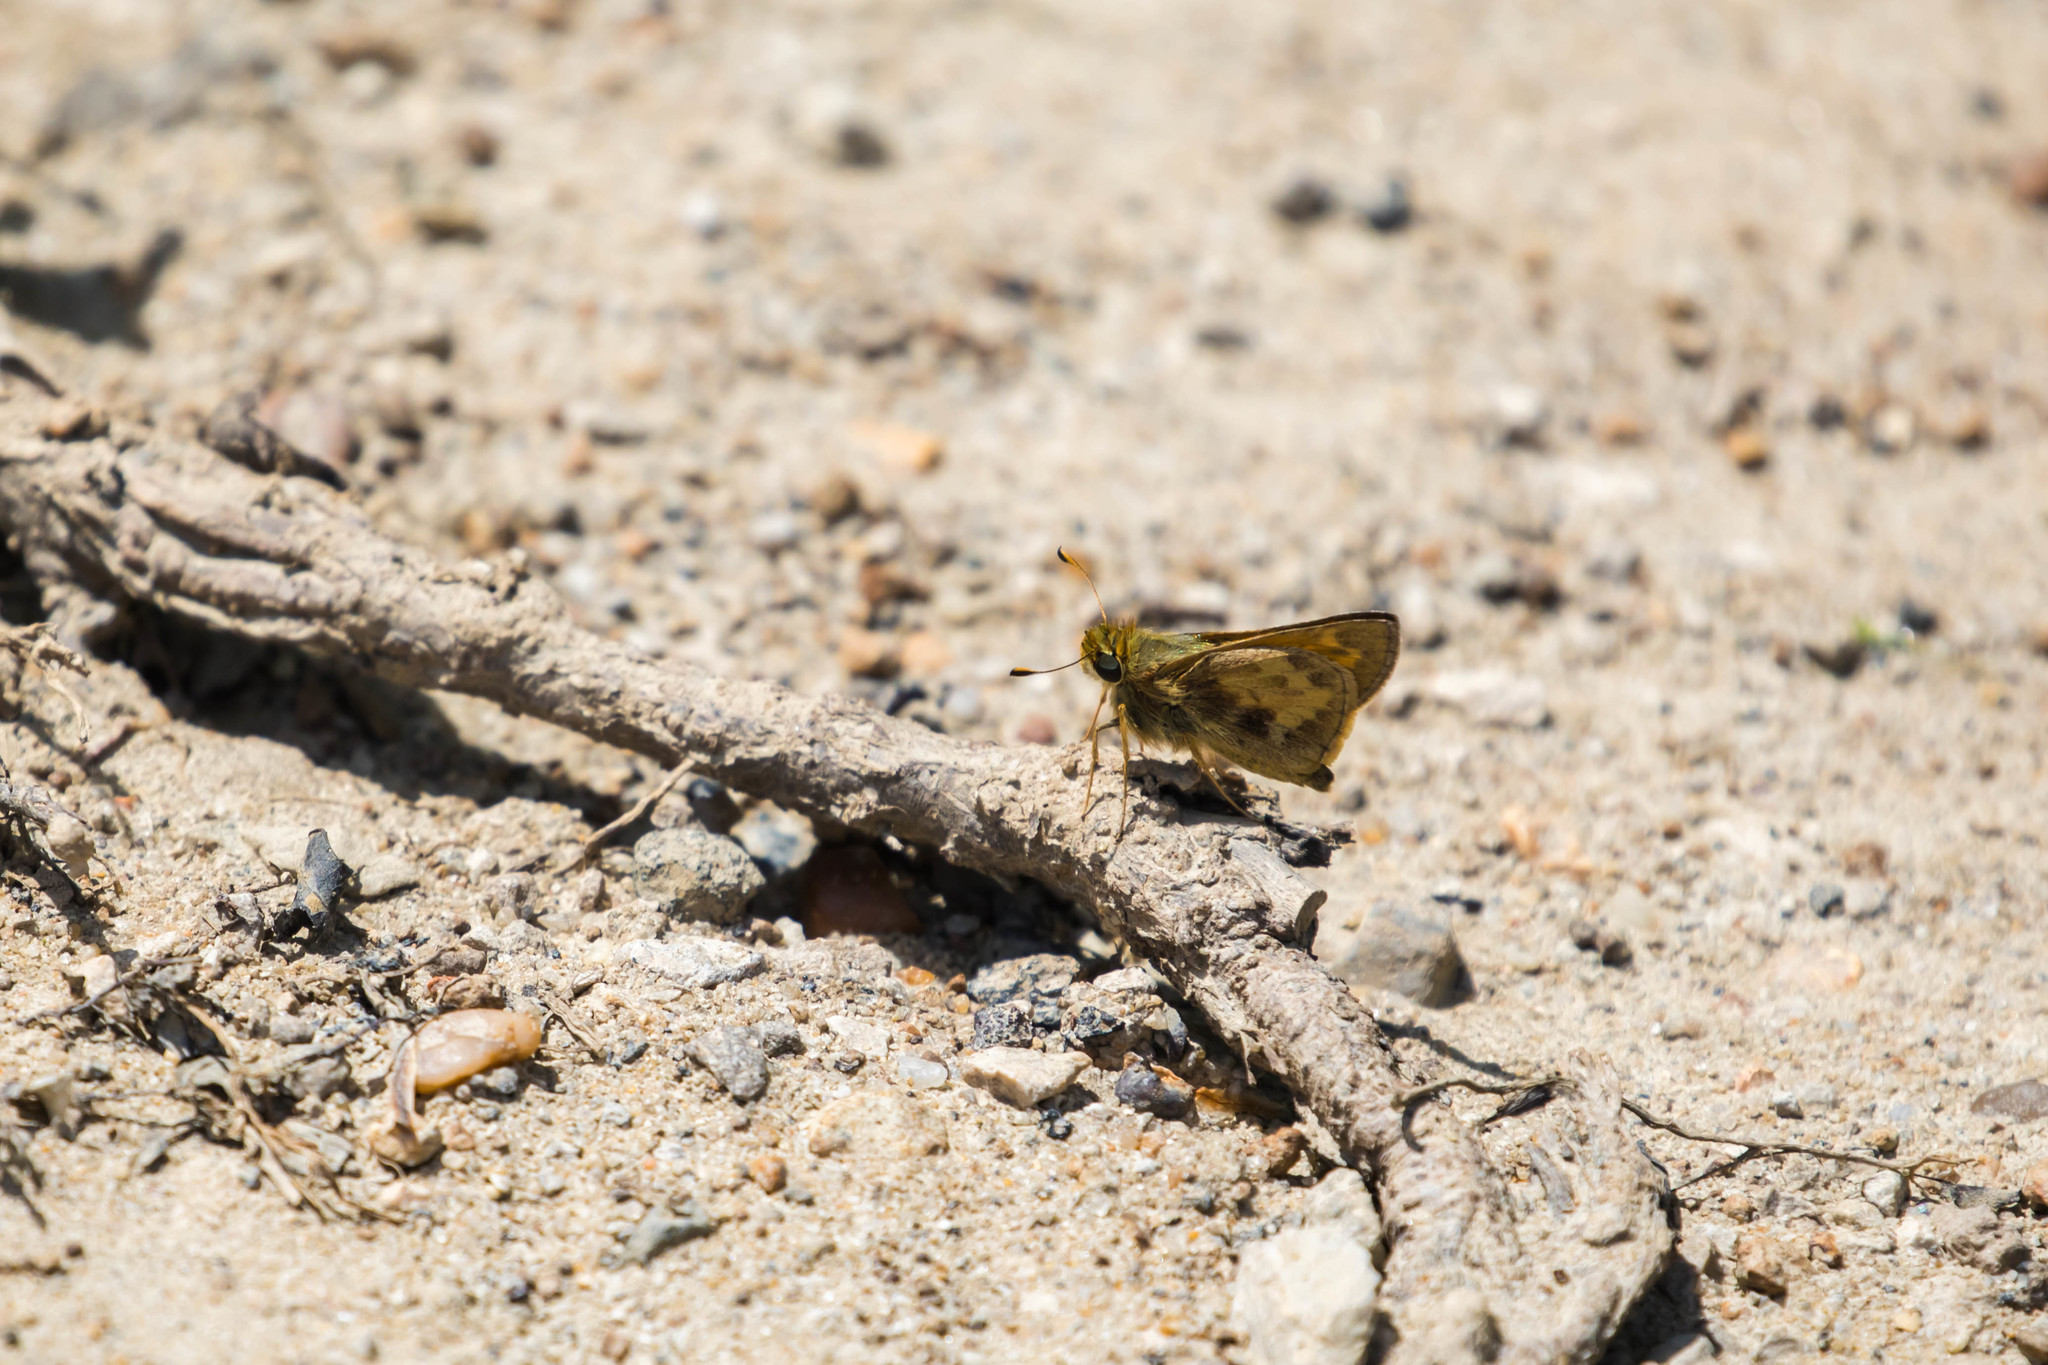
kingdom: Animalia
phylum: Arthropoda
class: Insecta
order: Lepidoptera
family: Hesperiidae
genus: Atalopedes
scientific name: Atalopedes
